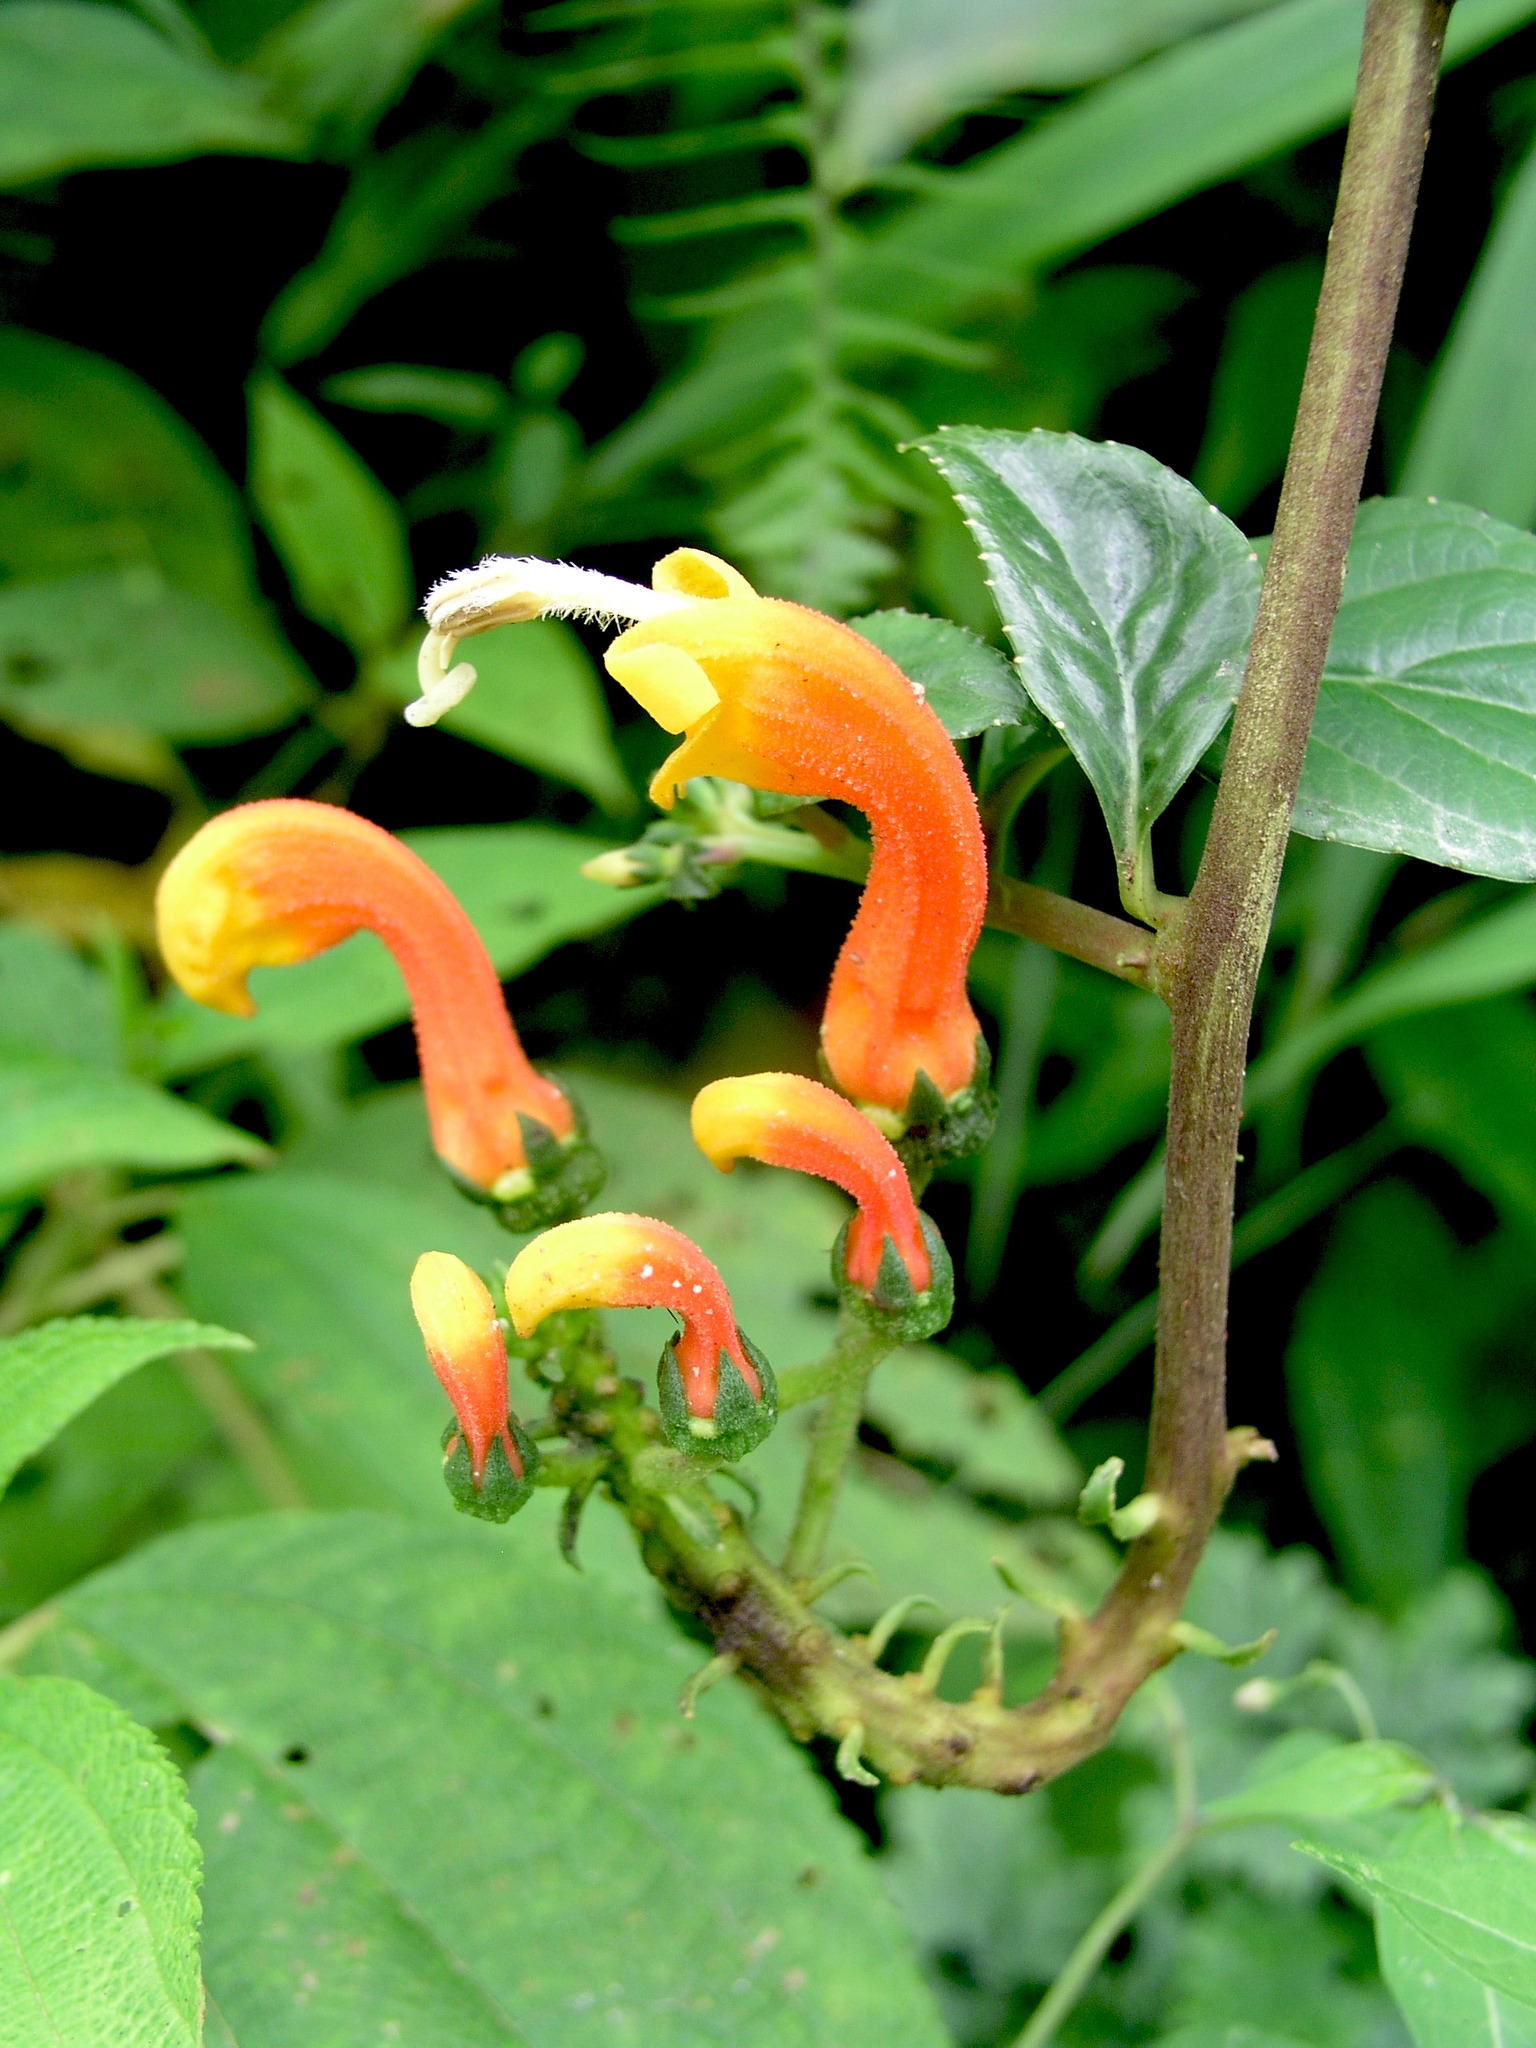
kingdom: Plantae
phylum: Tracheophyta
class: Magnoliopsida
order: Asterales
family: Campanulaceae
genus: Centropogon
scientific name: Centropogon granulosus
